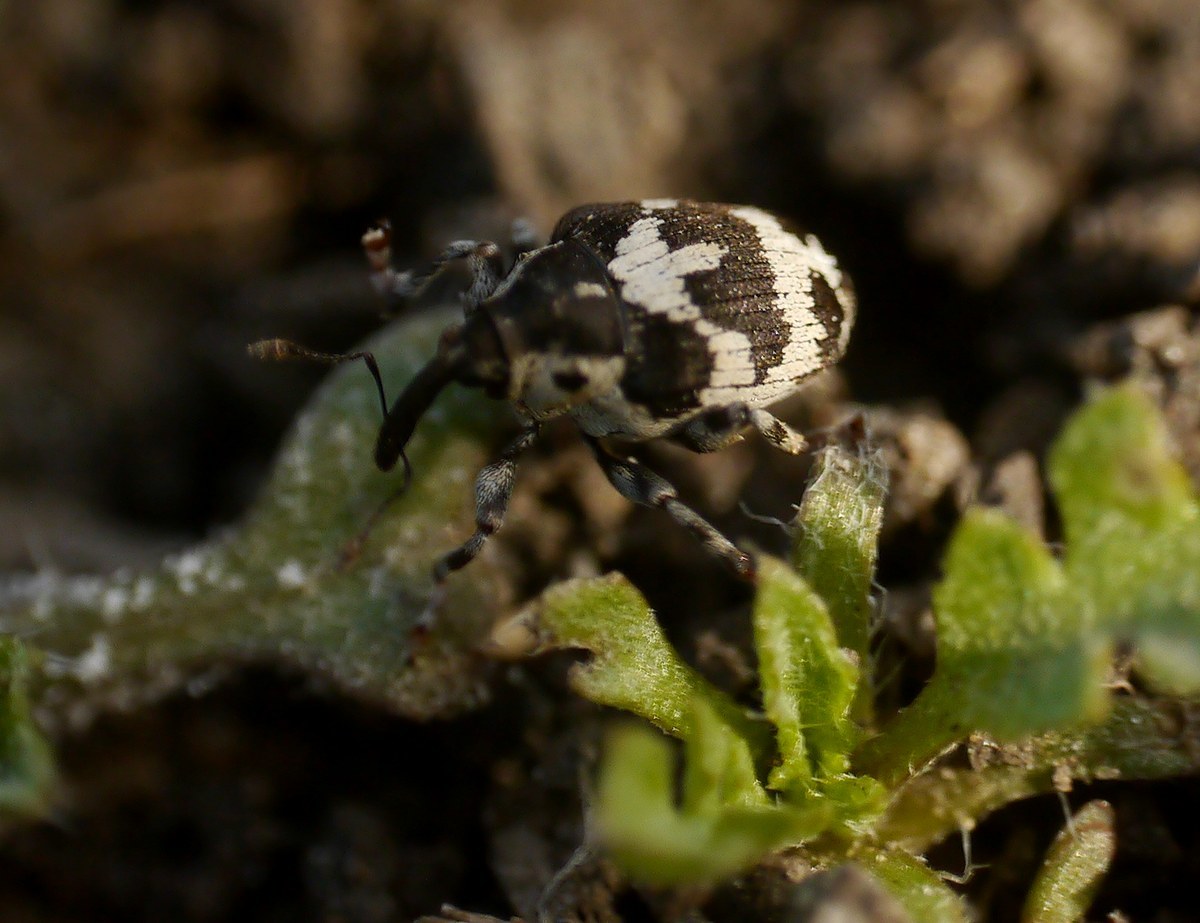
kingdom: Animalia
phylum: Arthropoda
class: Insecta
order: Coleoptera
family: Curculionidae
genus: Thamiocolus
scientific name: Thamiocolus sinapis
